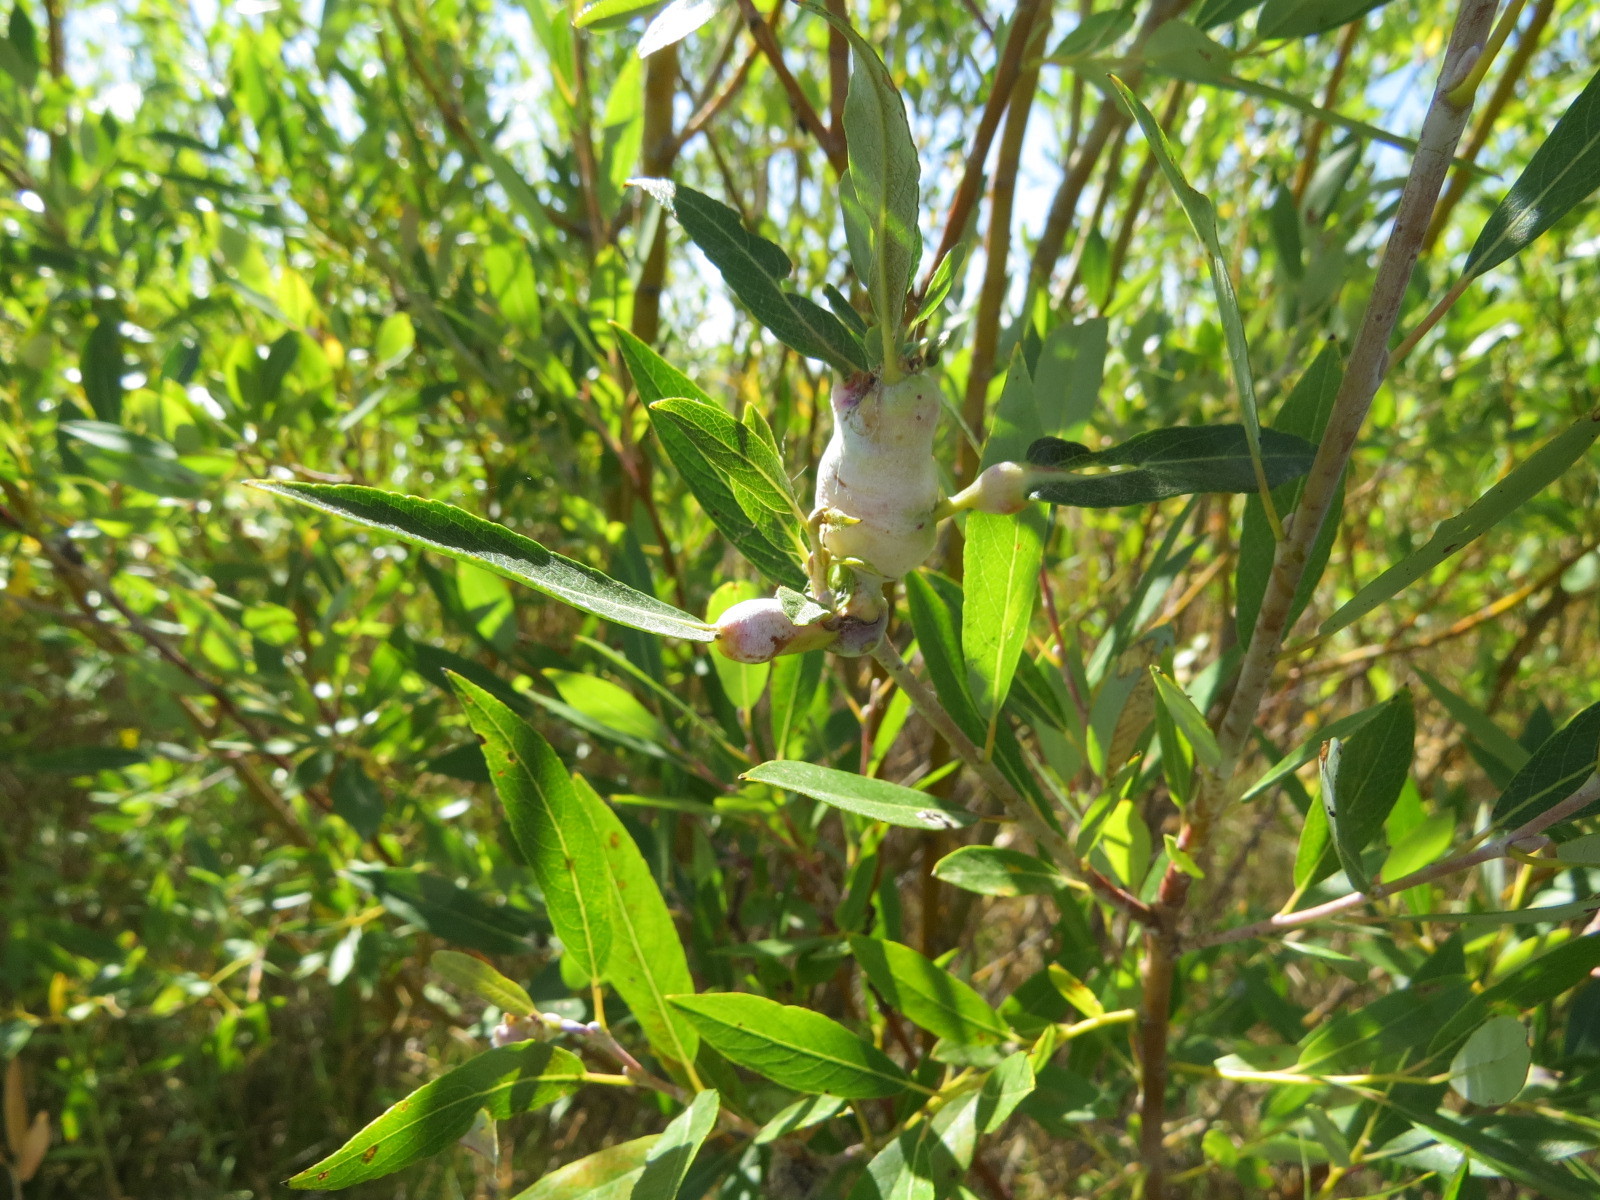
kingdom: Animalia
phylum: Arthropoda
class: Insecta
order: Diptera
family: Cecidomyiidae
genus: Rabdophaga
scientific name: Rabdophaga salicisbatatas
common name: Potato gall midge
